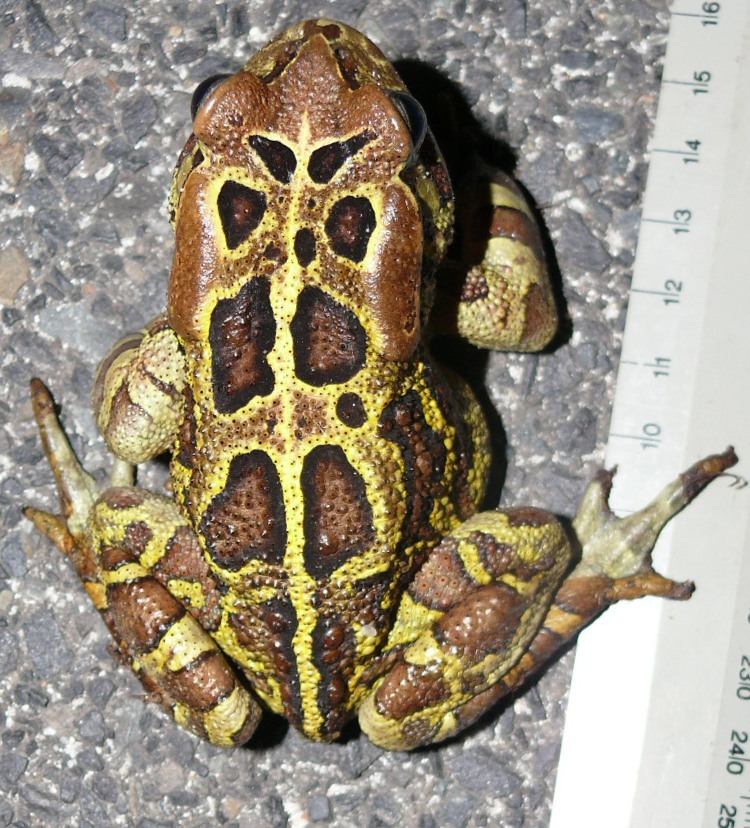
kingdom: Animalia
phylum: Chordata
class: Amphibia
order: Anura
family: Bufonidae
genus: Sclerophrys
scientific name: Sclerophrys pantherina
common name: Panther toad
